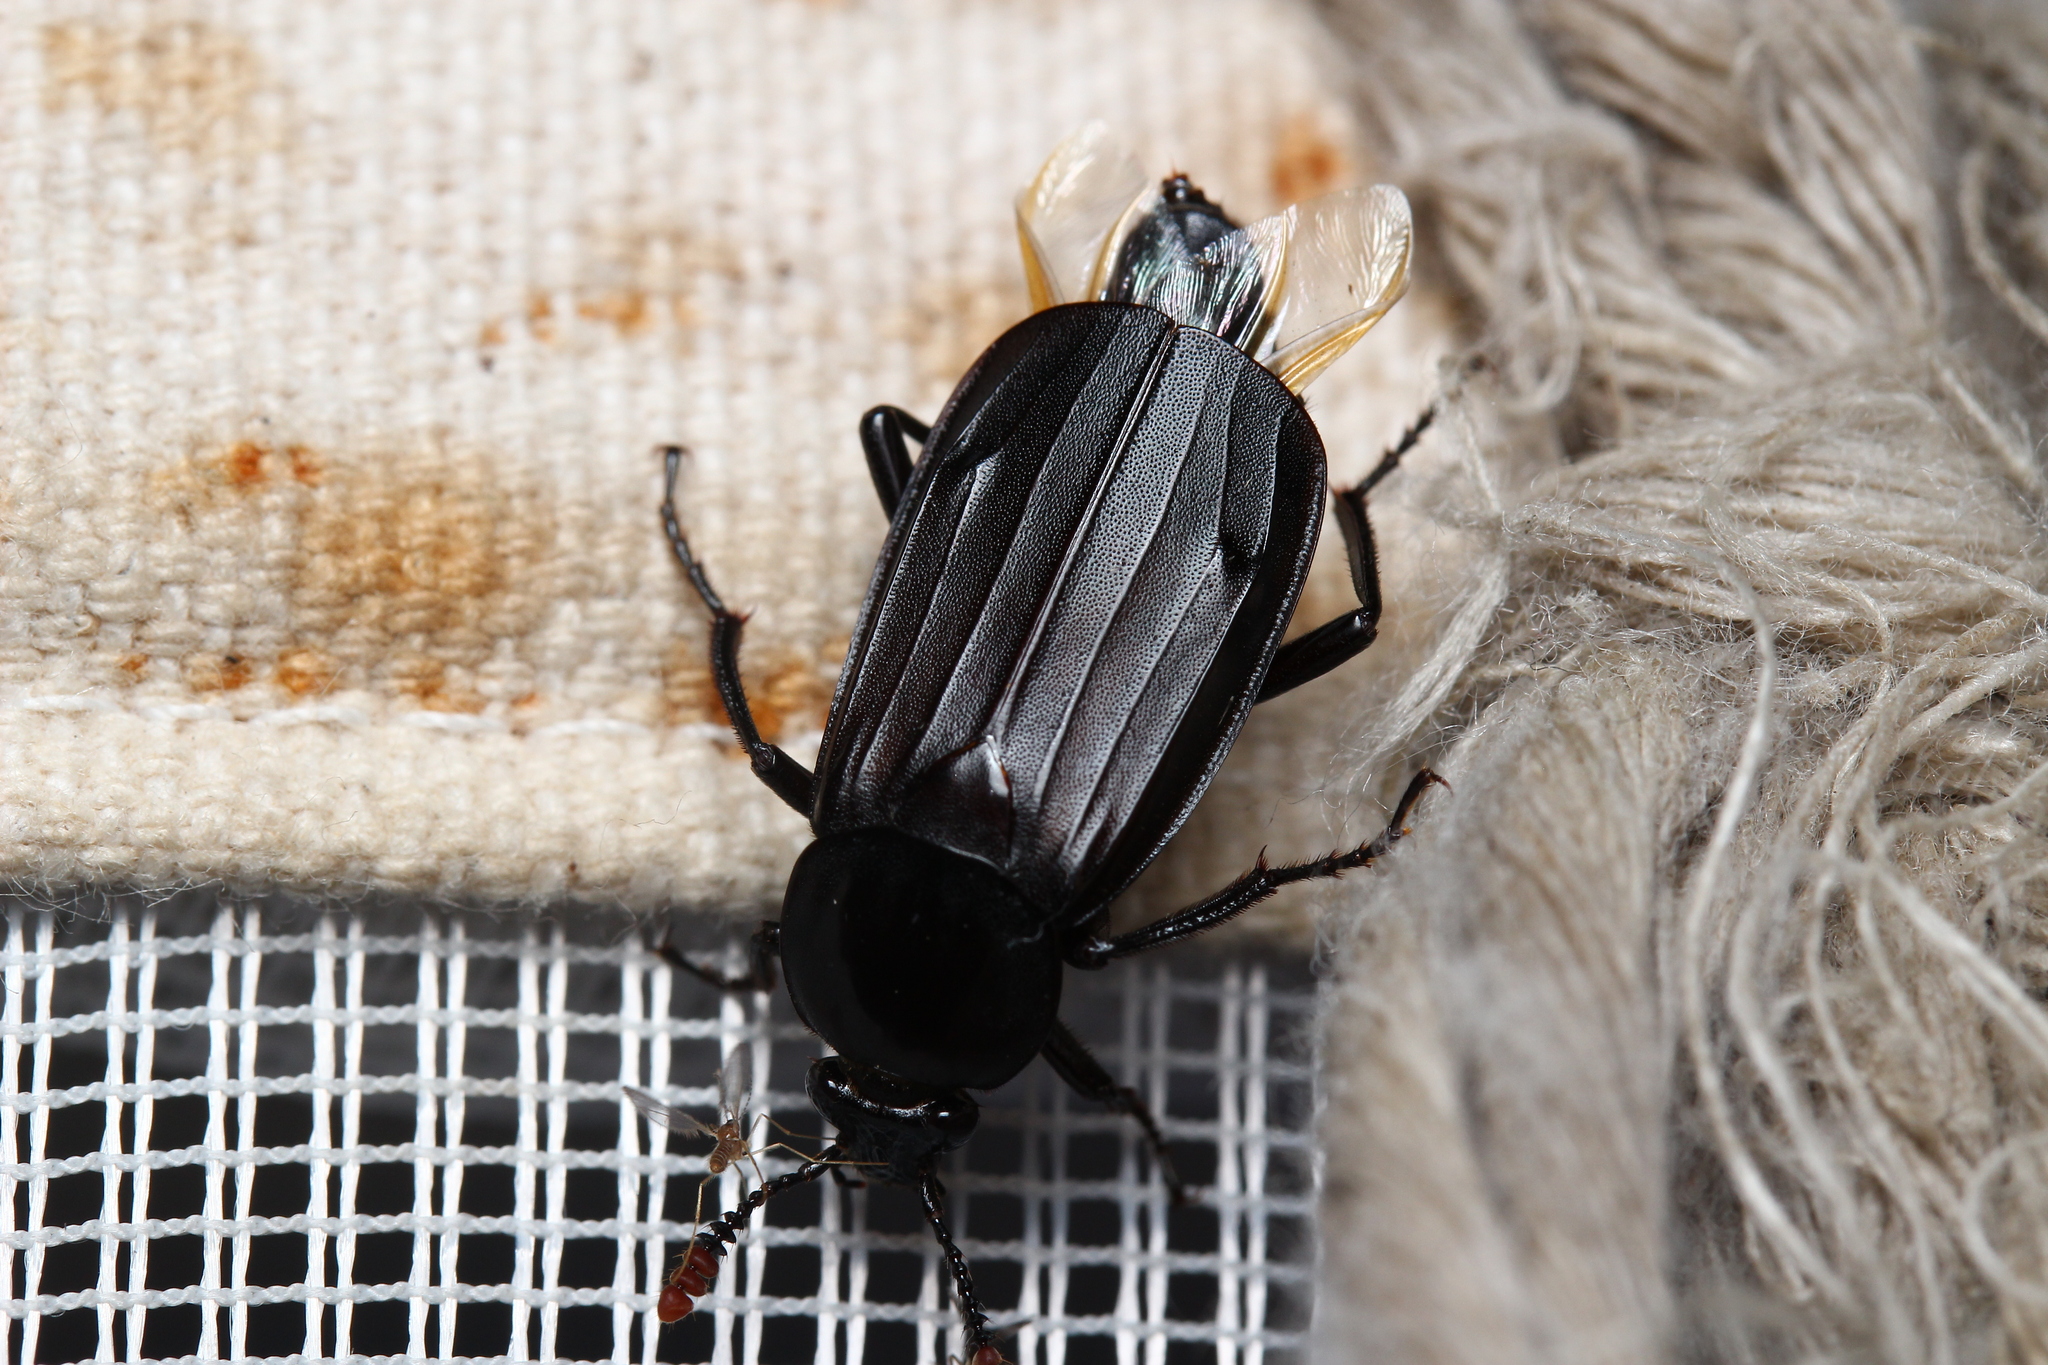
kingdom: Animalia
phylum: Arthropoda
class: Insecta
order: Coleoptera
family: Staphylinidae
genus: Necrodes
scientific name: Necrodes littoralis
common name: Shore sexton beetle
